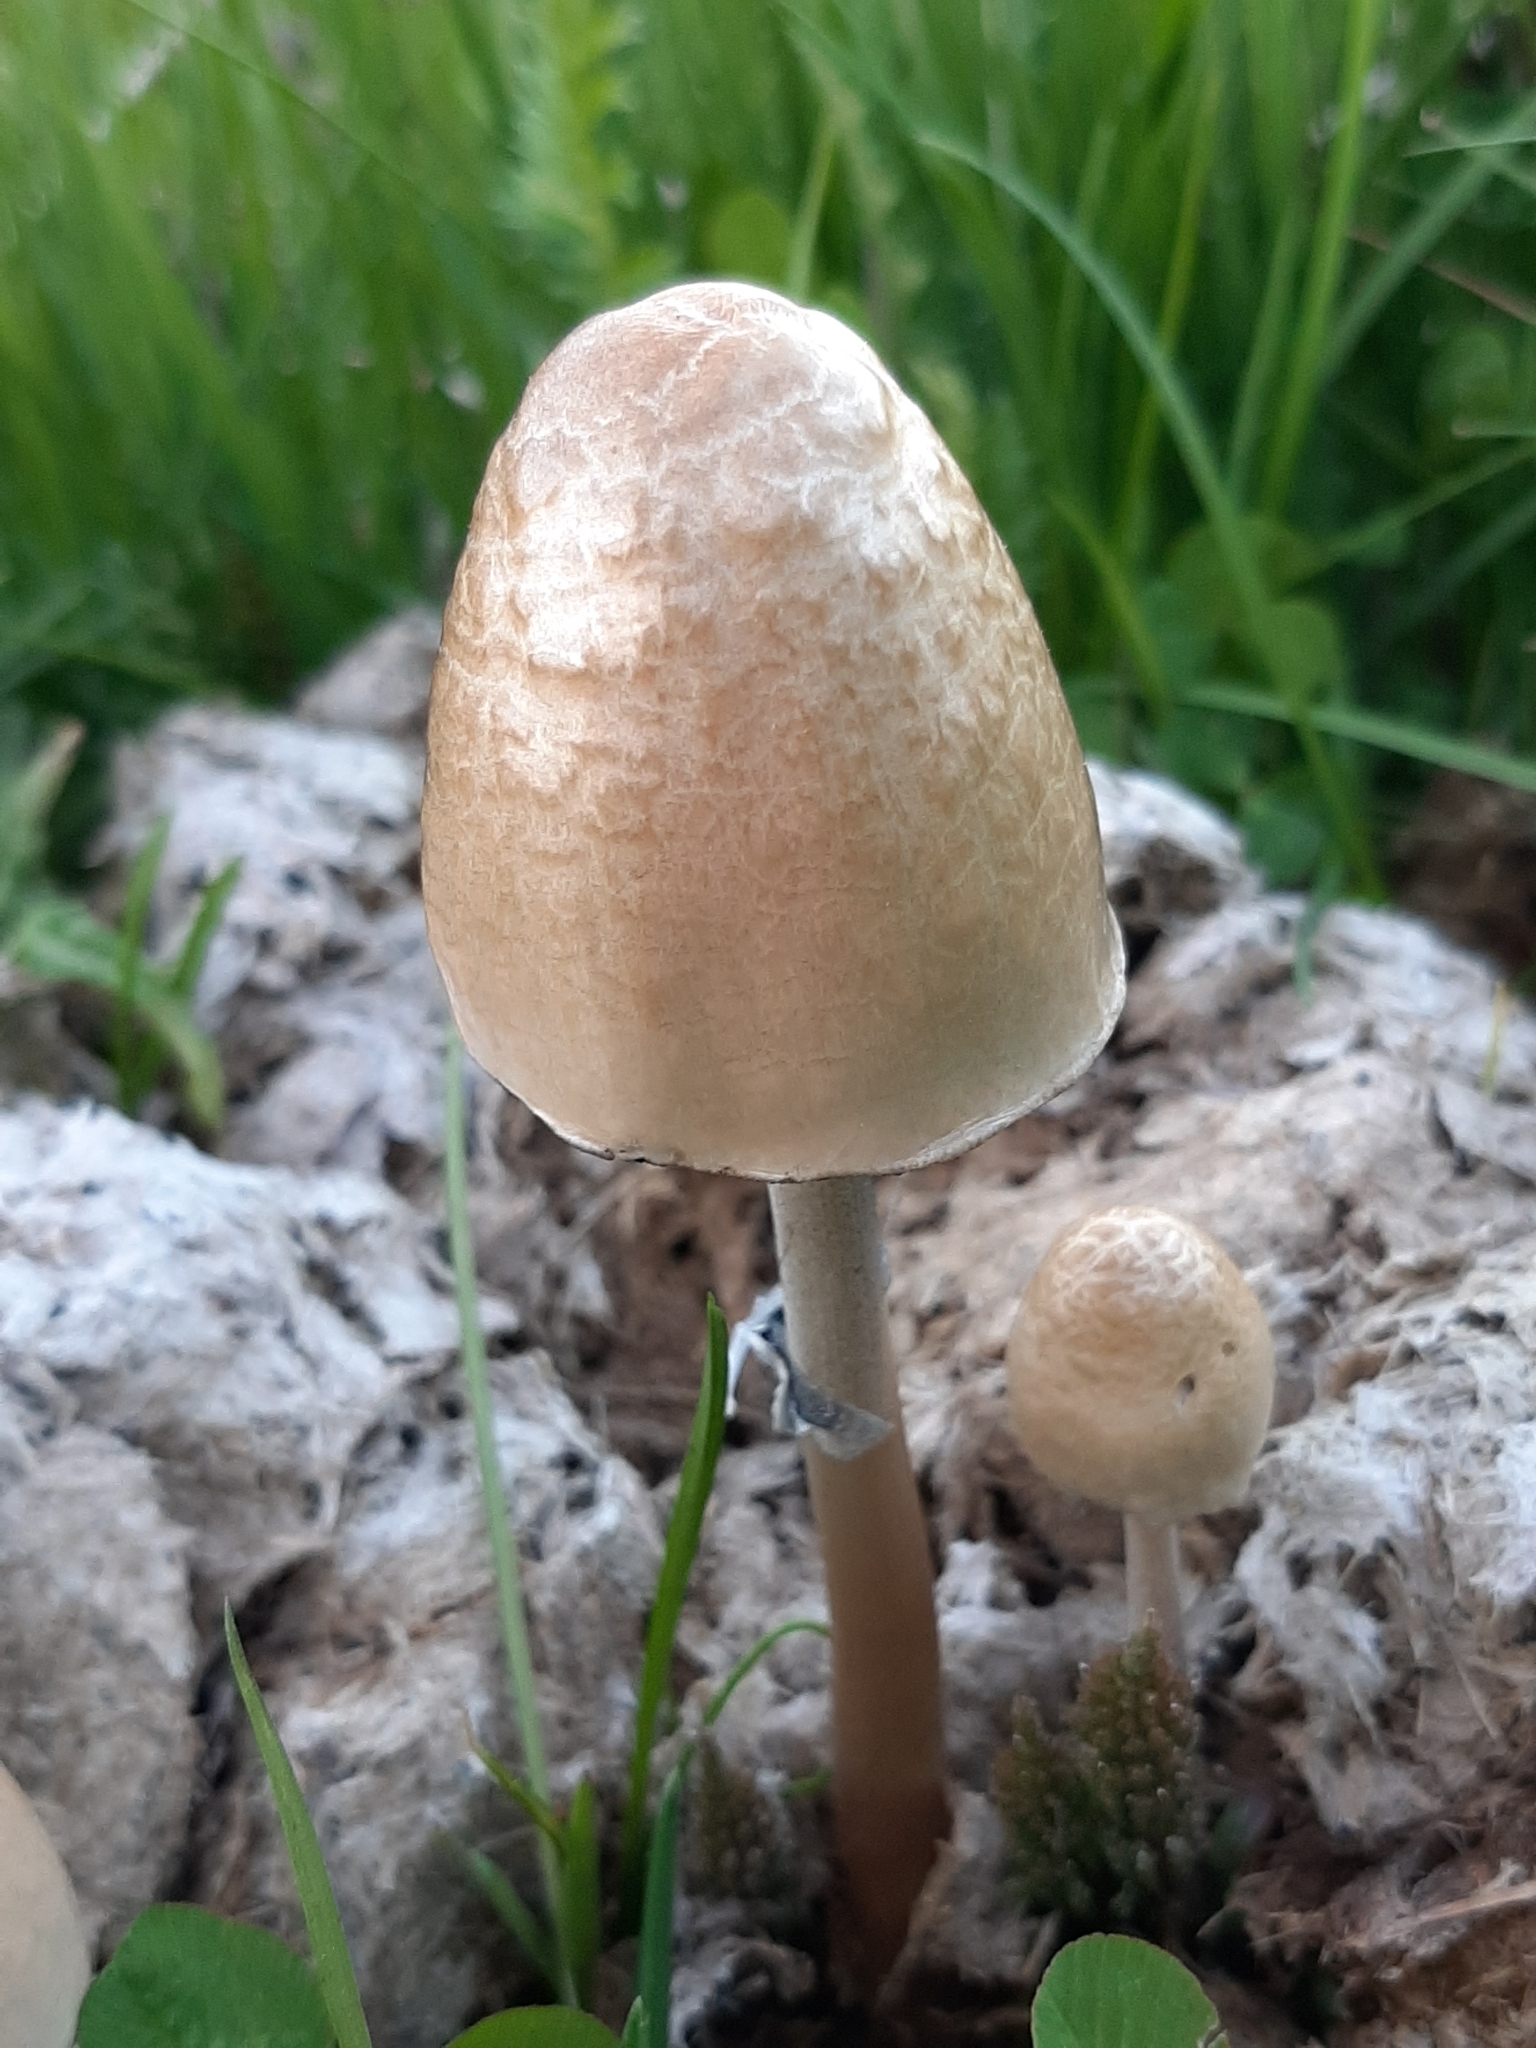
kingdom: Fungi
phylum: Basidiomycota
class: Agaricomycetes
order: Agaricales
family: Bolbitiaceae
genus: Panaeolus
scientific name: Panaeolus semiovatus
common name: Shiny mottlegill
